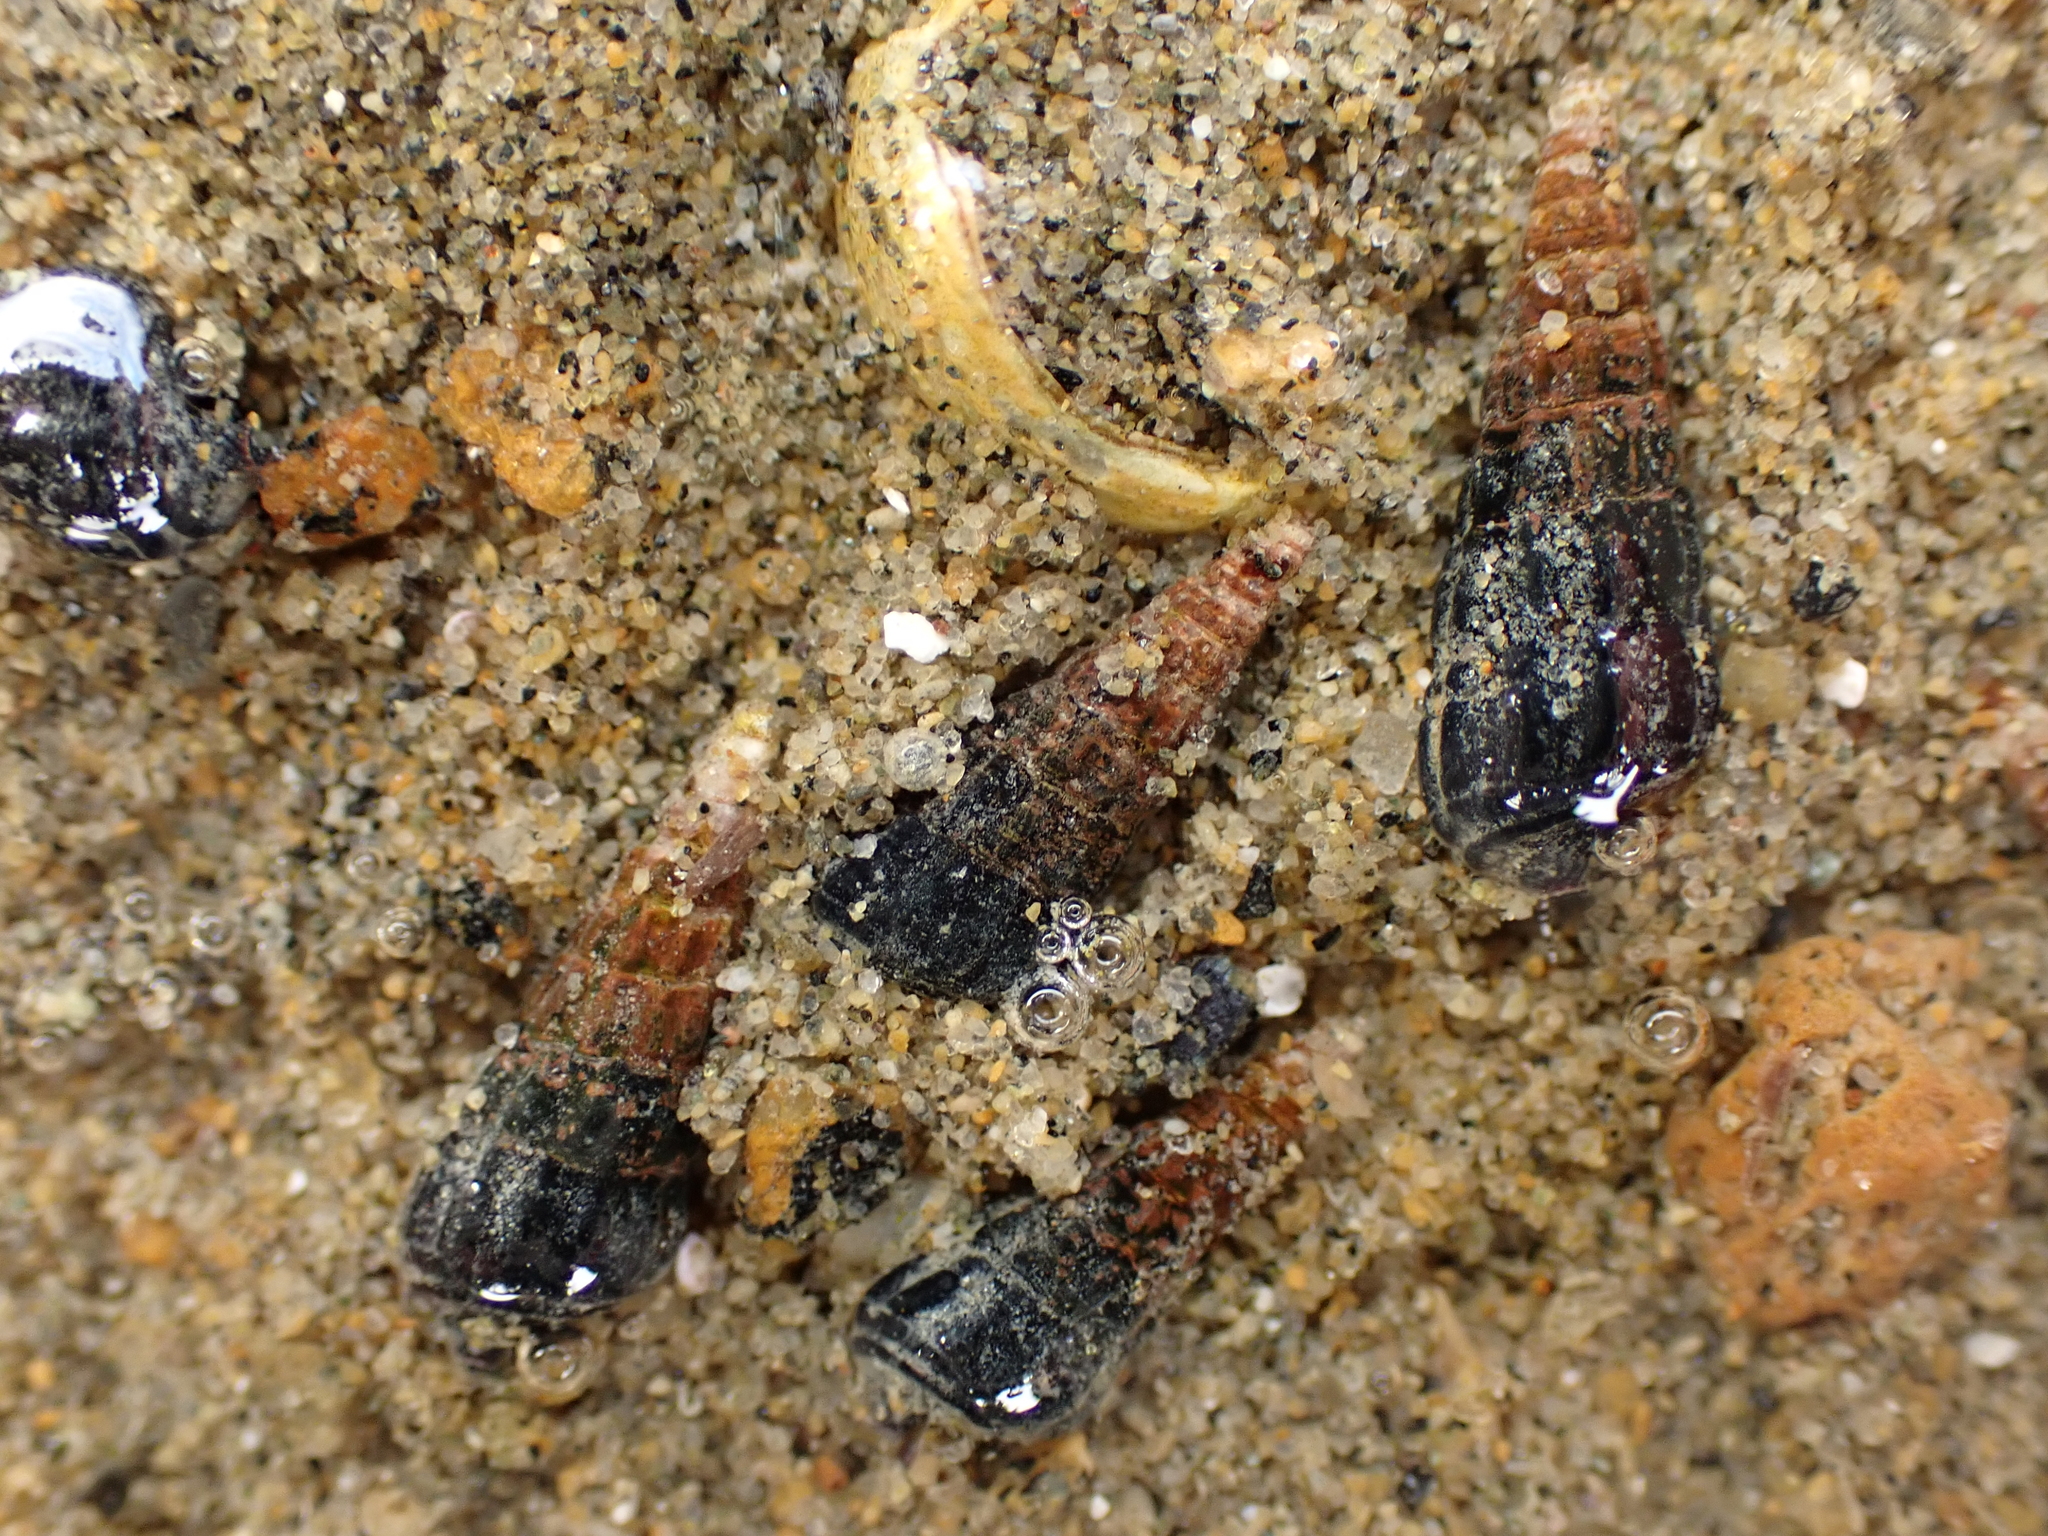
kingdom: Animalia
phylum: Mollusca
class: Gastropoda
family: Batillariidae
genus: Zeacumantus
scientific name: Zeacumantus subcarinatus
